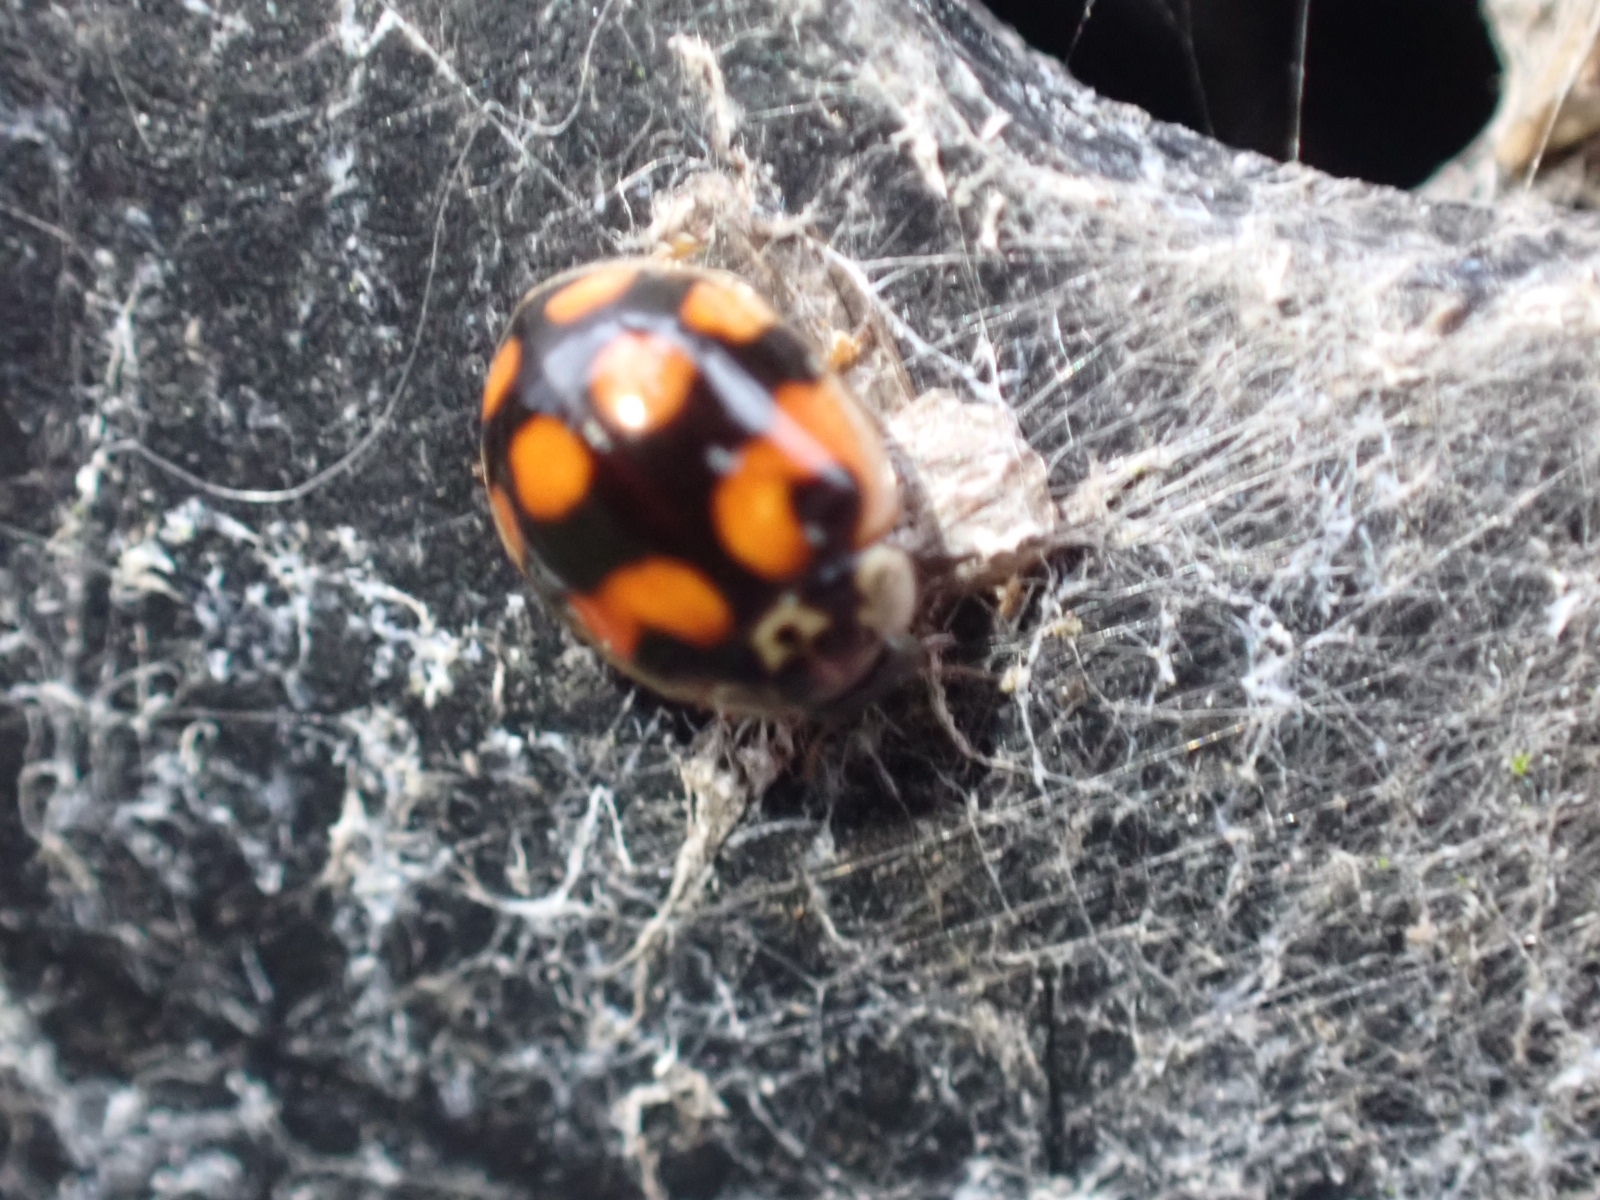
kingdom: Animalia
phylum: Arthropoda
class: Insecta
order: Coleoptera
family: Coccinellidae
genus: Adalia
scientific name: Adalia decempunctata
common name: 10-spot ladybird
